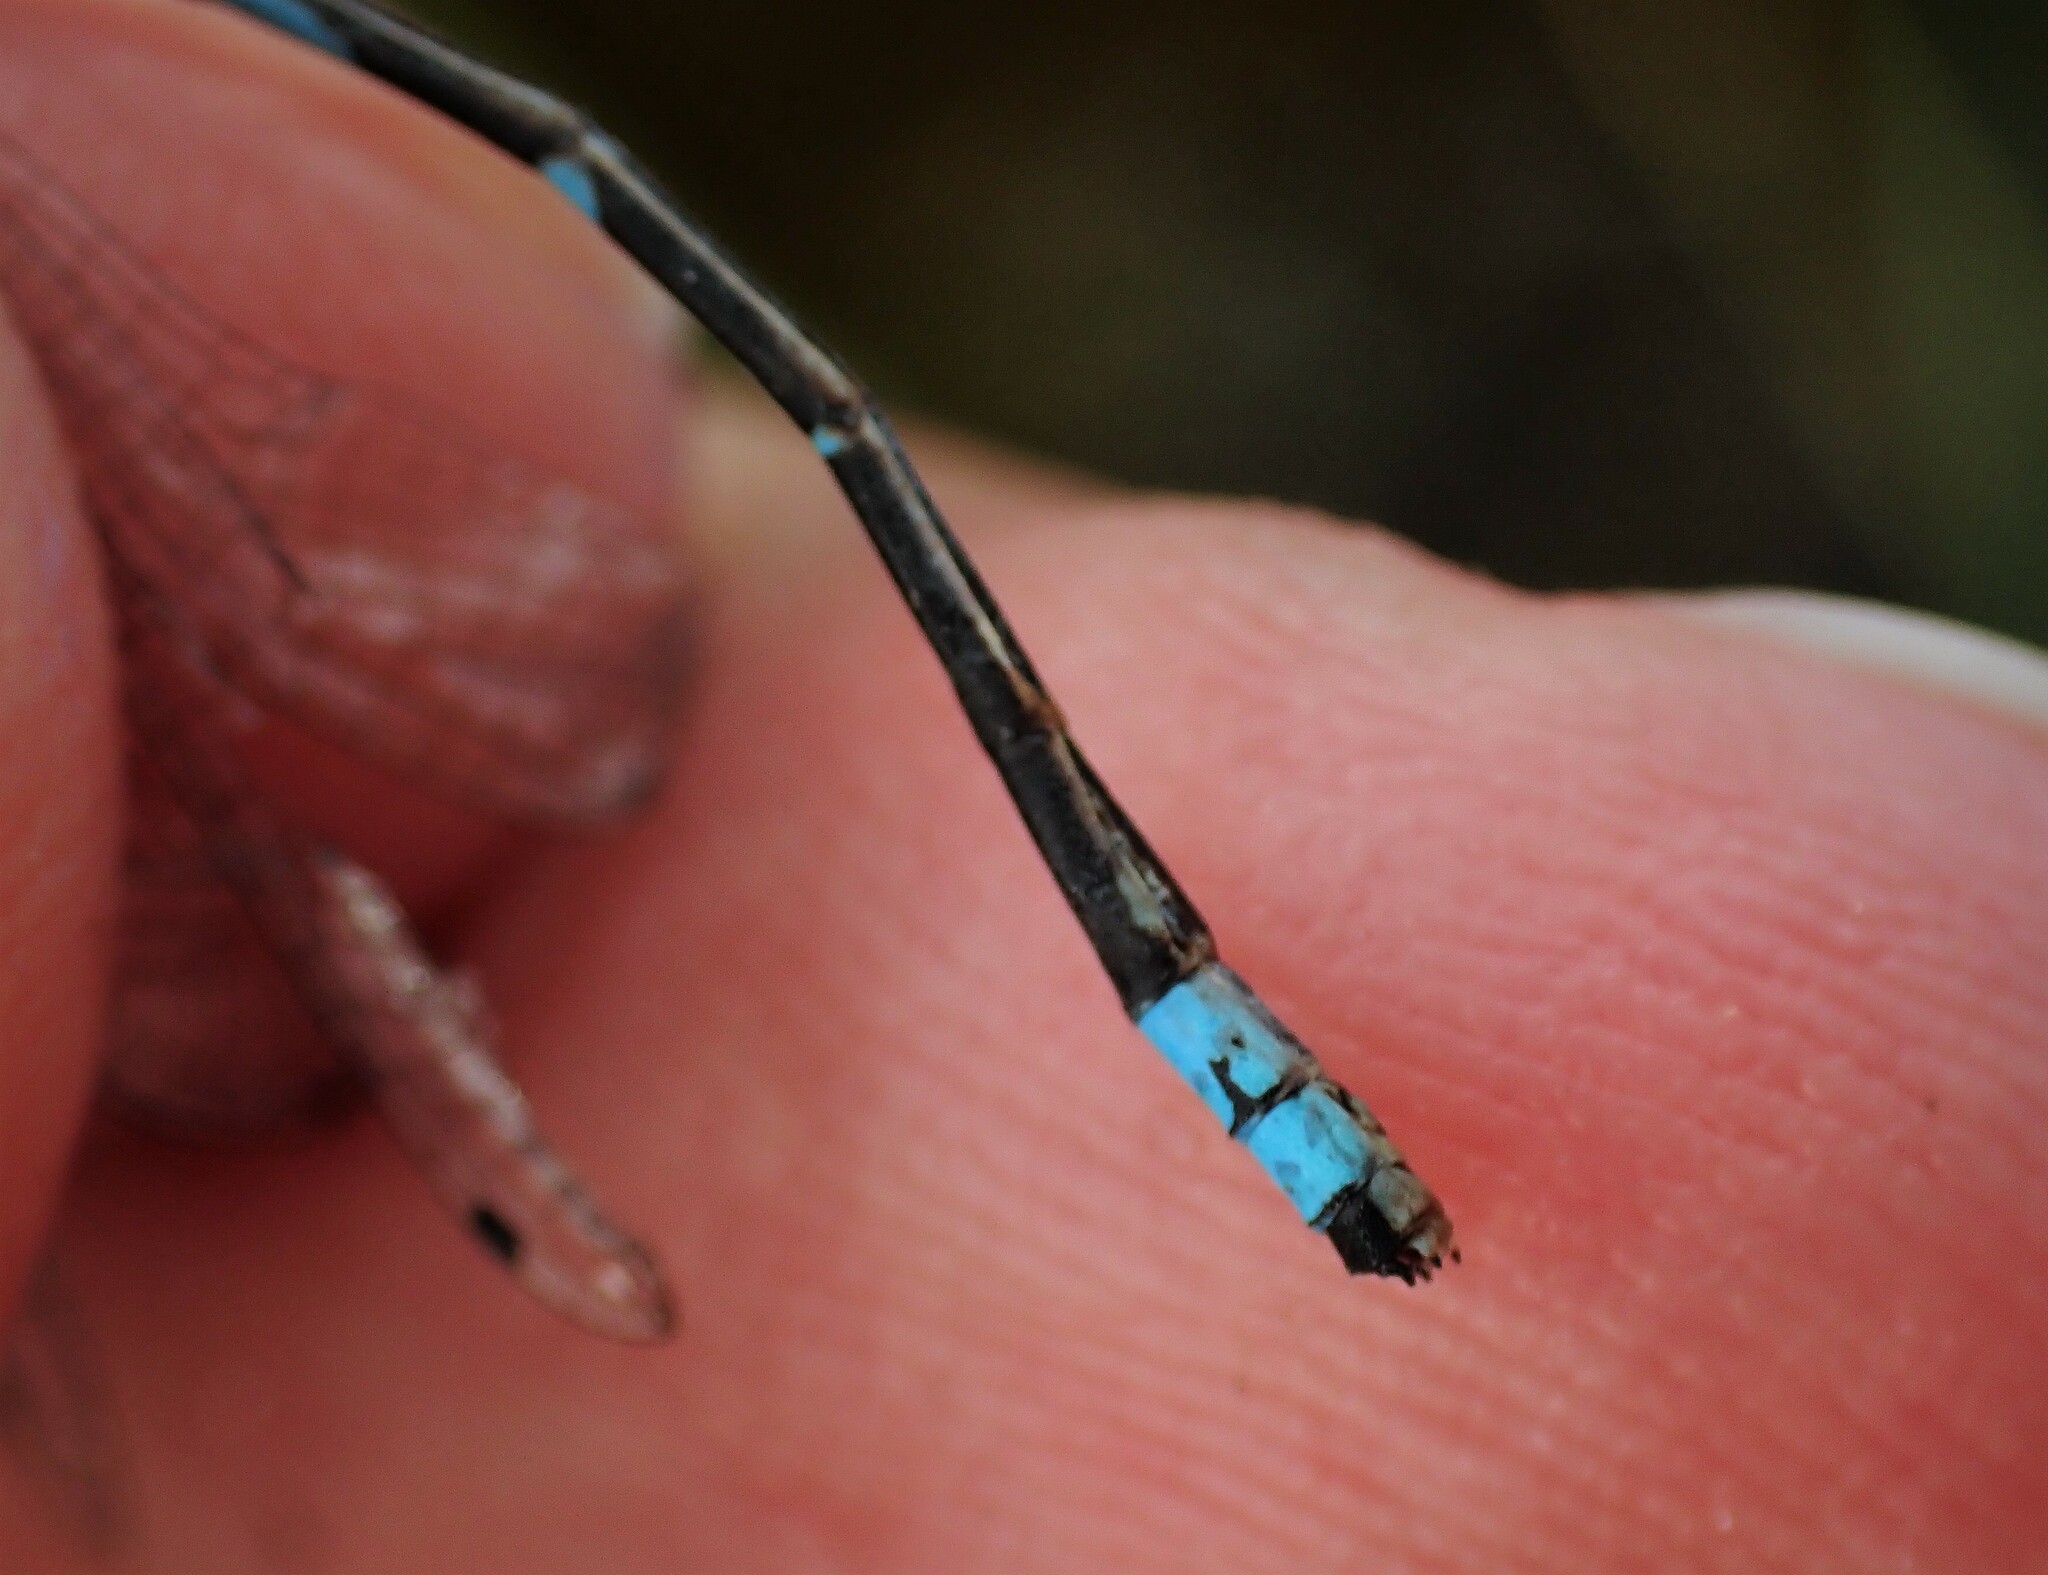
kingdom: Animalia
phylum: Arthropoda
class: Insecta
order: Odonata
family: Coenagrionidae
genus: Enallagma
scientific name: Enallagma hageni
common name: Hagen's bluet
